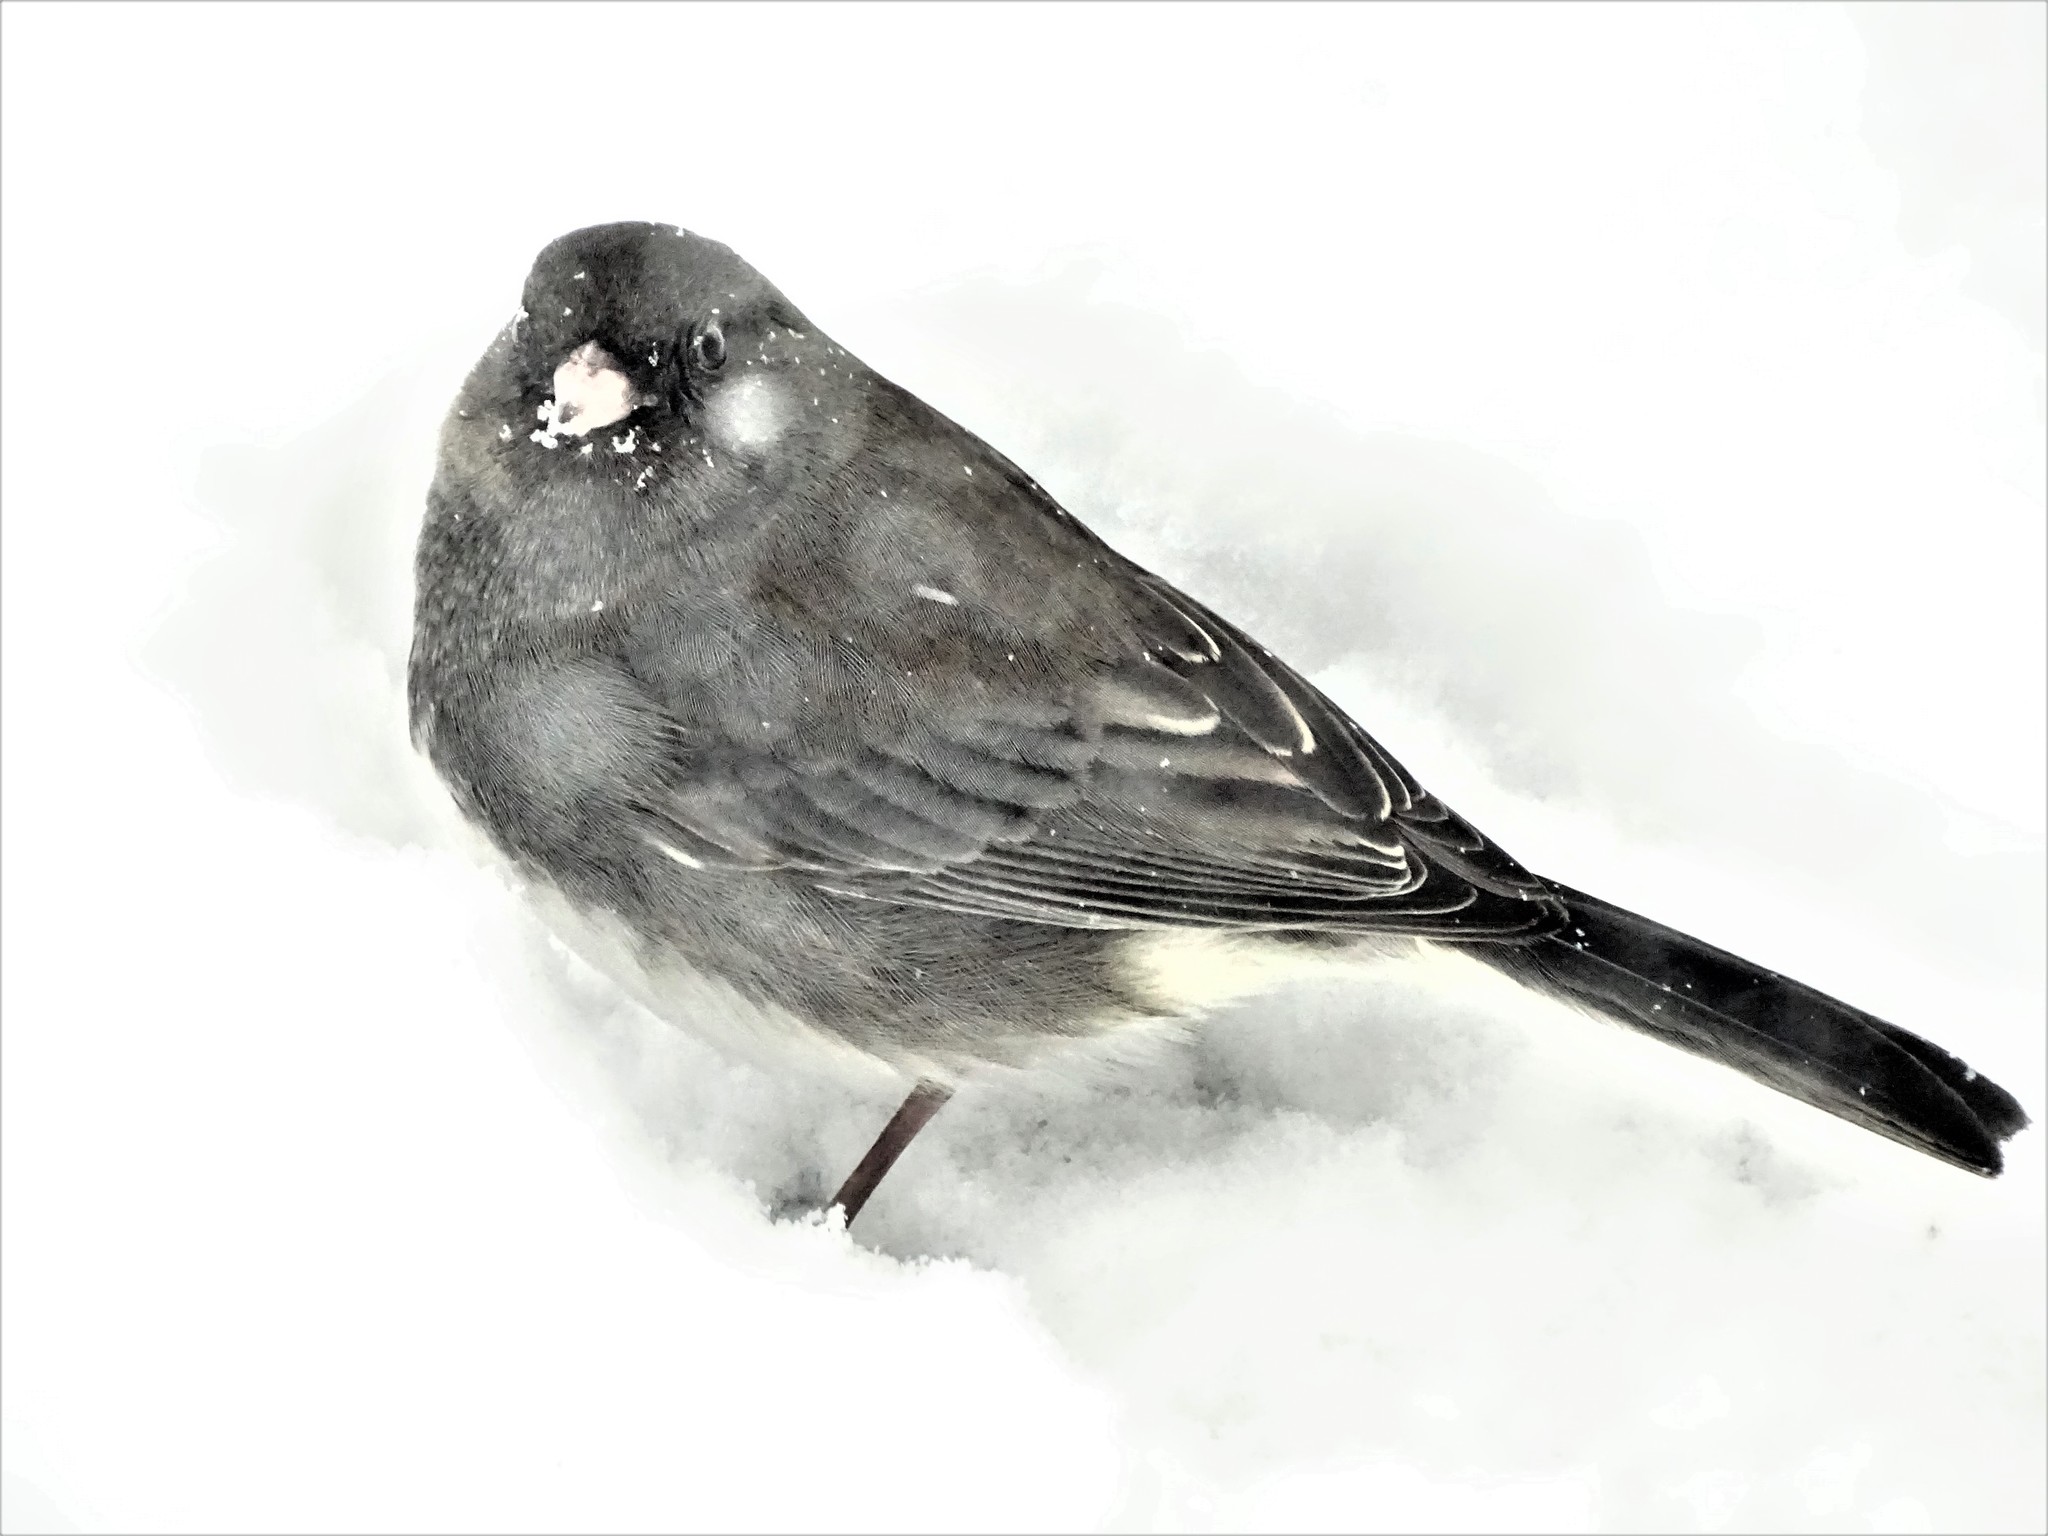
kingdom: Animalia
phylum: Chordata
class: Aves
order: Passeriformes
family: Passerellidae
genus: Junco
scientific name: Junco hyemalis
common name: Dark-eyed junco
